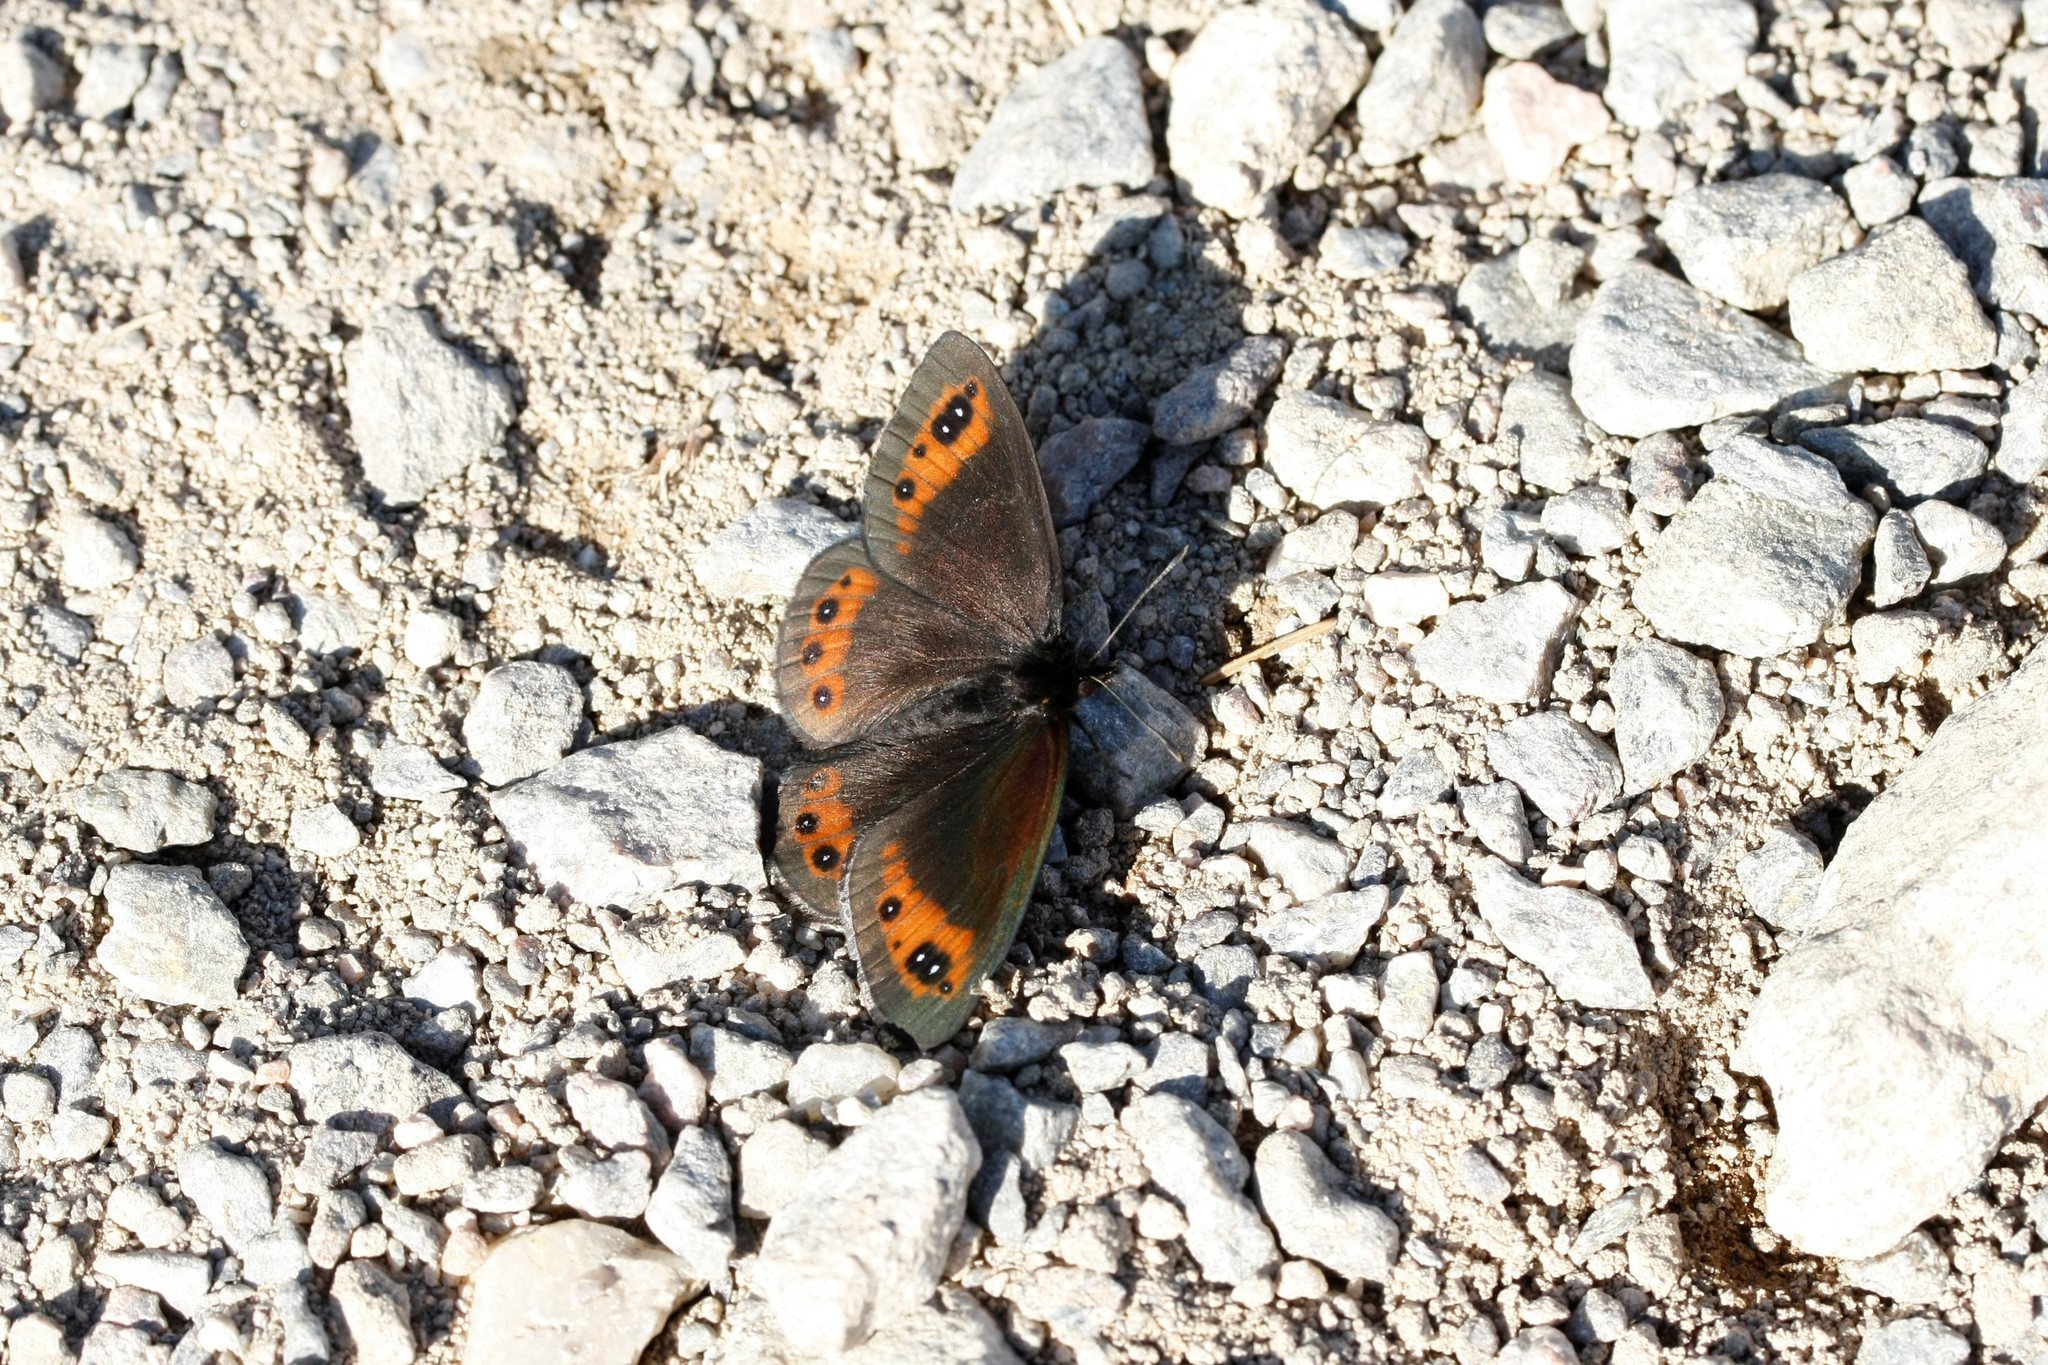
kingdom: Animalia
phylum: Arthropoda
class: Insecta
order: Lepidoptera
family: Nymphalidae
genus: Erebia
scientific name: Erebia meolans
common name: Piedmont ringlet
